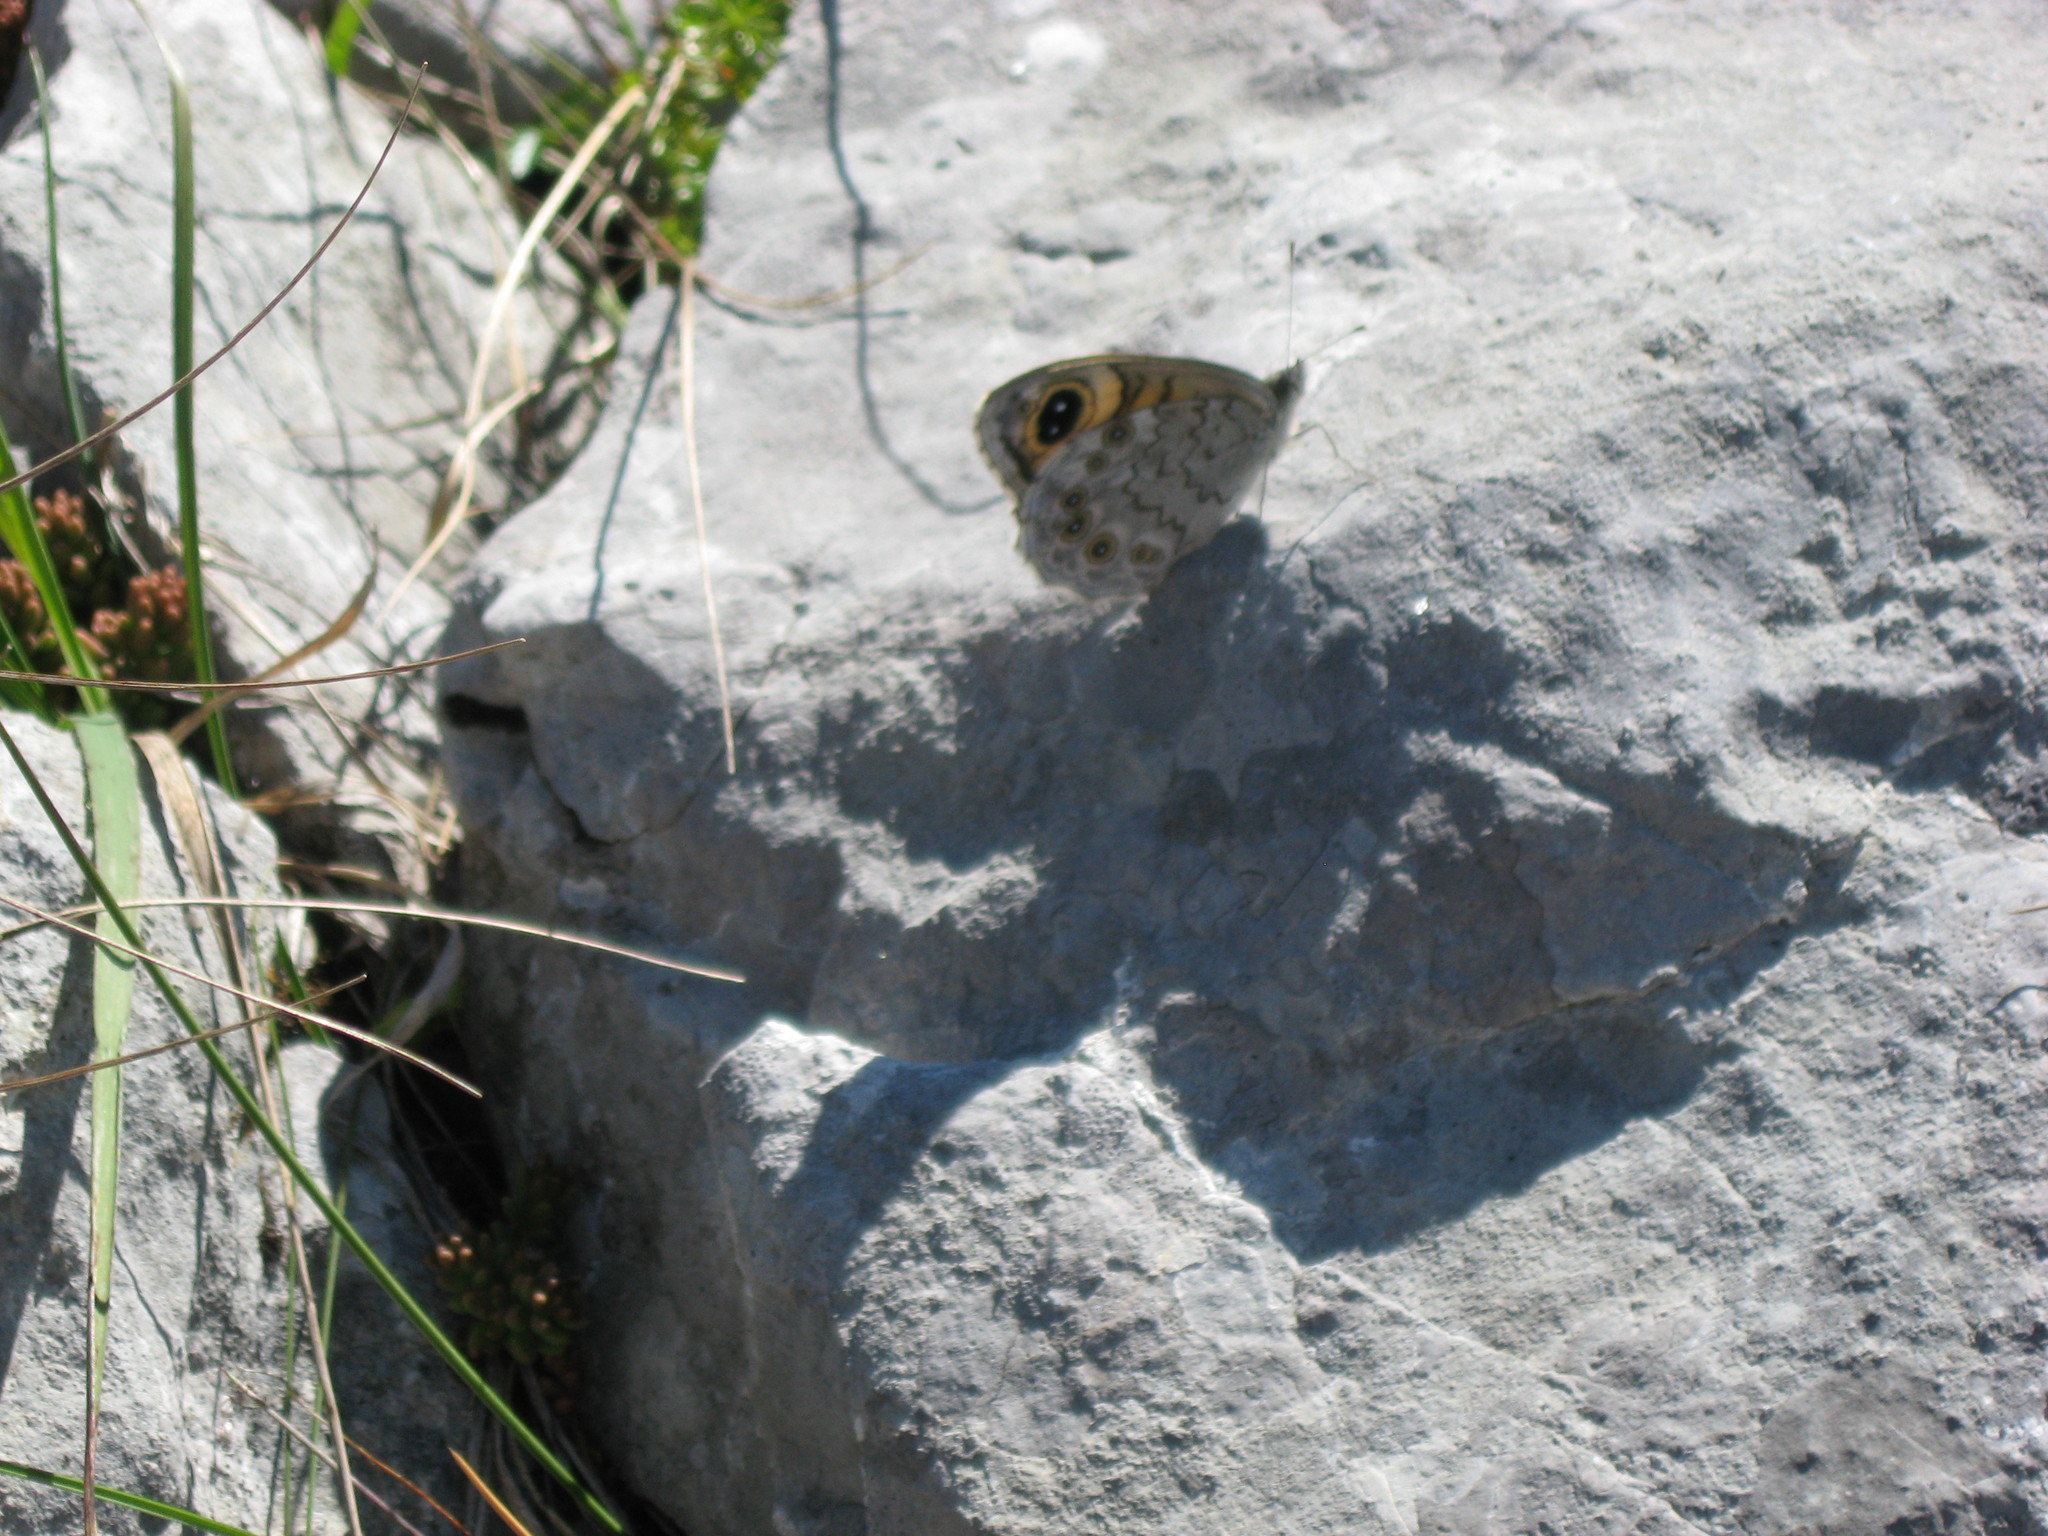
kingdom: Animalia
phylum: Arthropoda
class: Insecta
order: Lepidoptera
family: Nymphalidae
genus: Pararge
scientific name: Pararge Lasiommata maera
